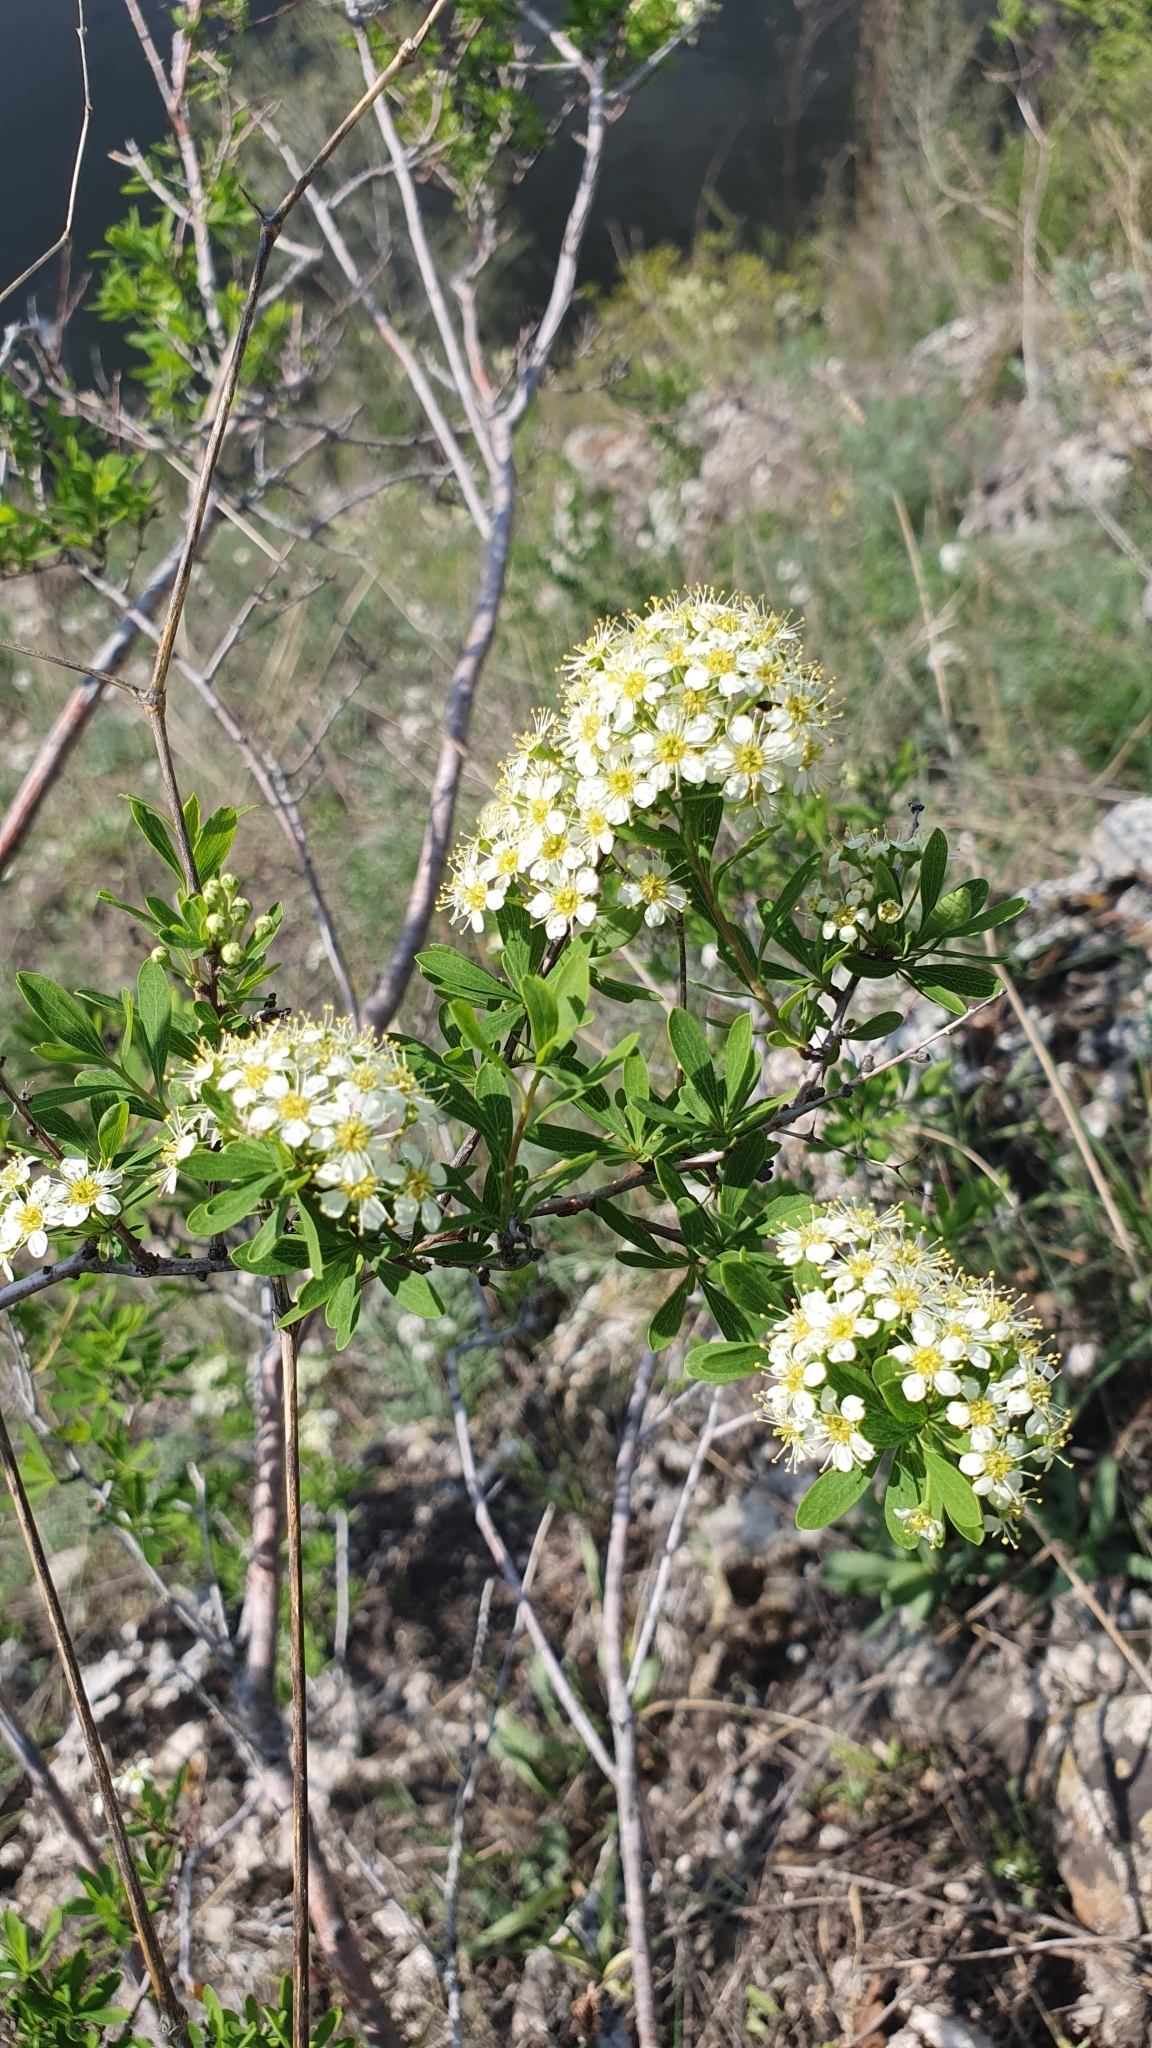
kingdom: Plantae
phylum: Tracheophyta
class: Magnoliopsida
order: Rosales
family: Rosaceae
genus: Spiraea
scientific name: Spiraea hypericifolia
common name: Iberian spirea
